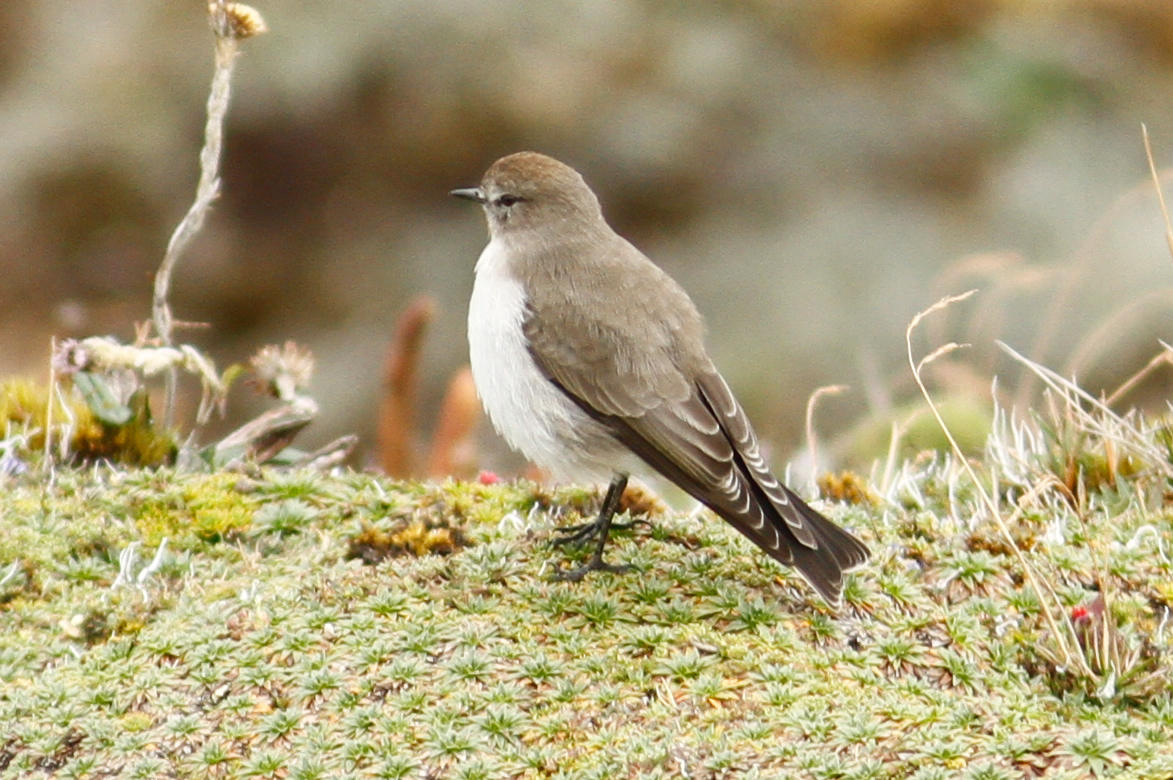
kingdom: Animalia
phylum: Chordata
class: Aves
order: Passeriformes
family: Tyrannidae
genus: Muscisaxicola
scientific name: Muscisaxicola alpinus
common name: Paramo ground tyrant
